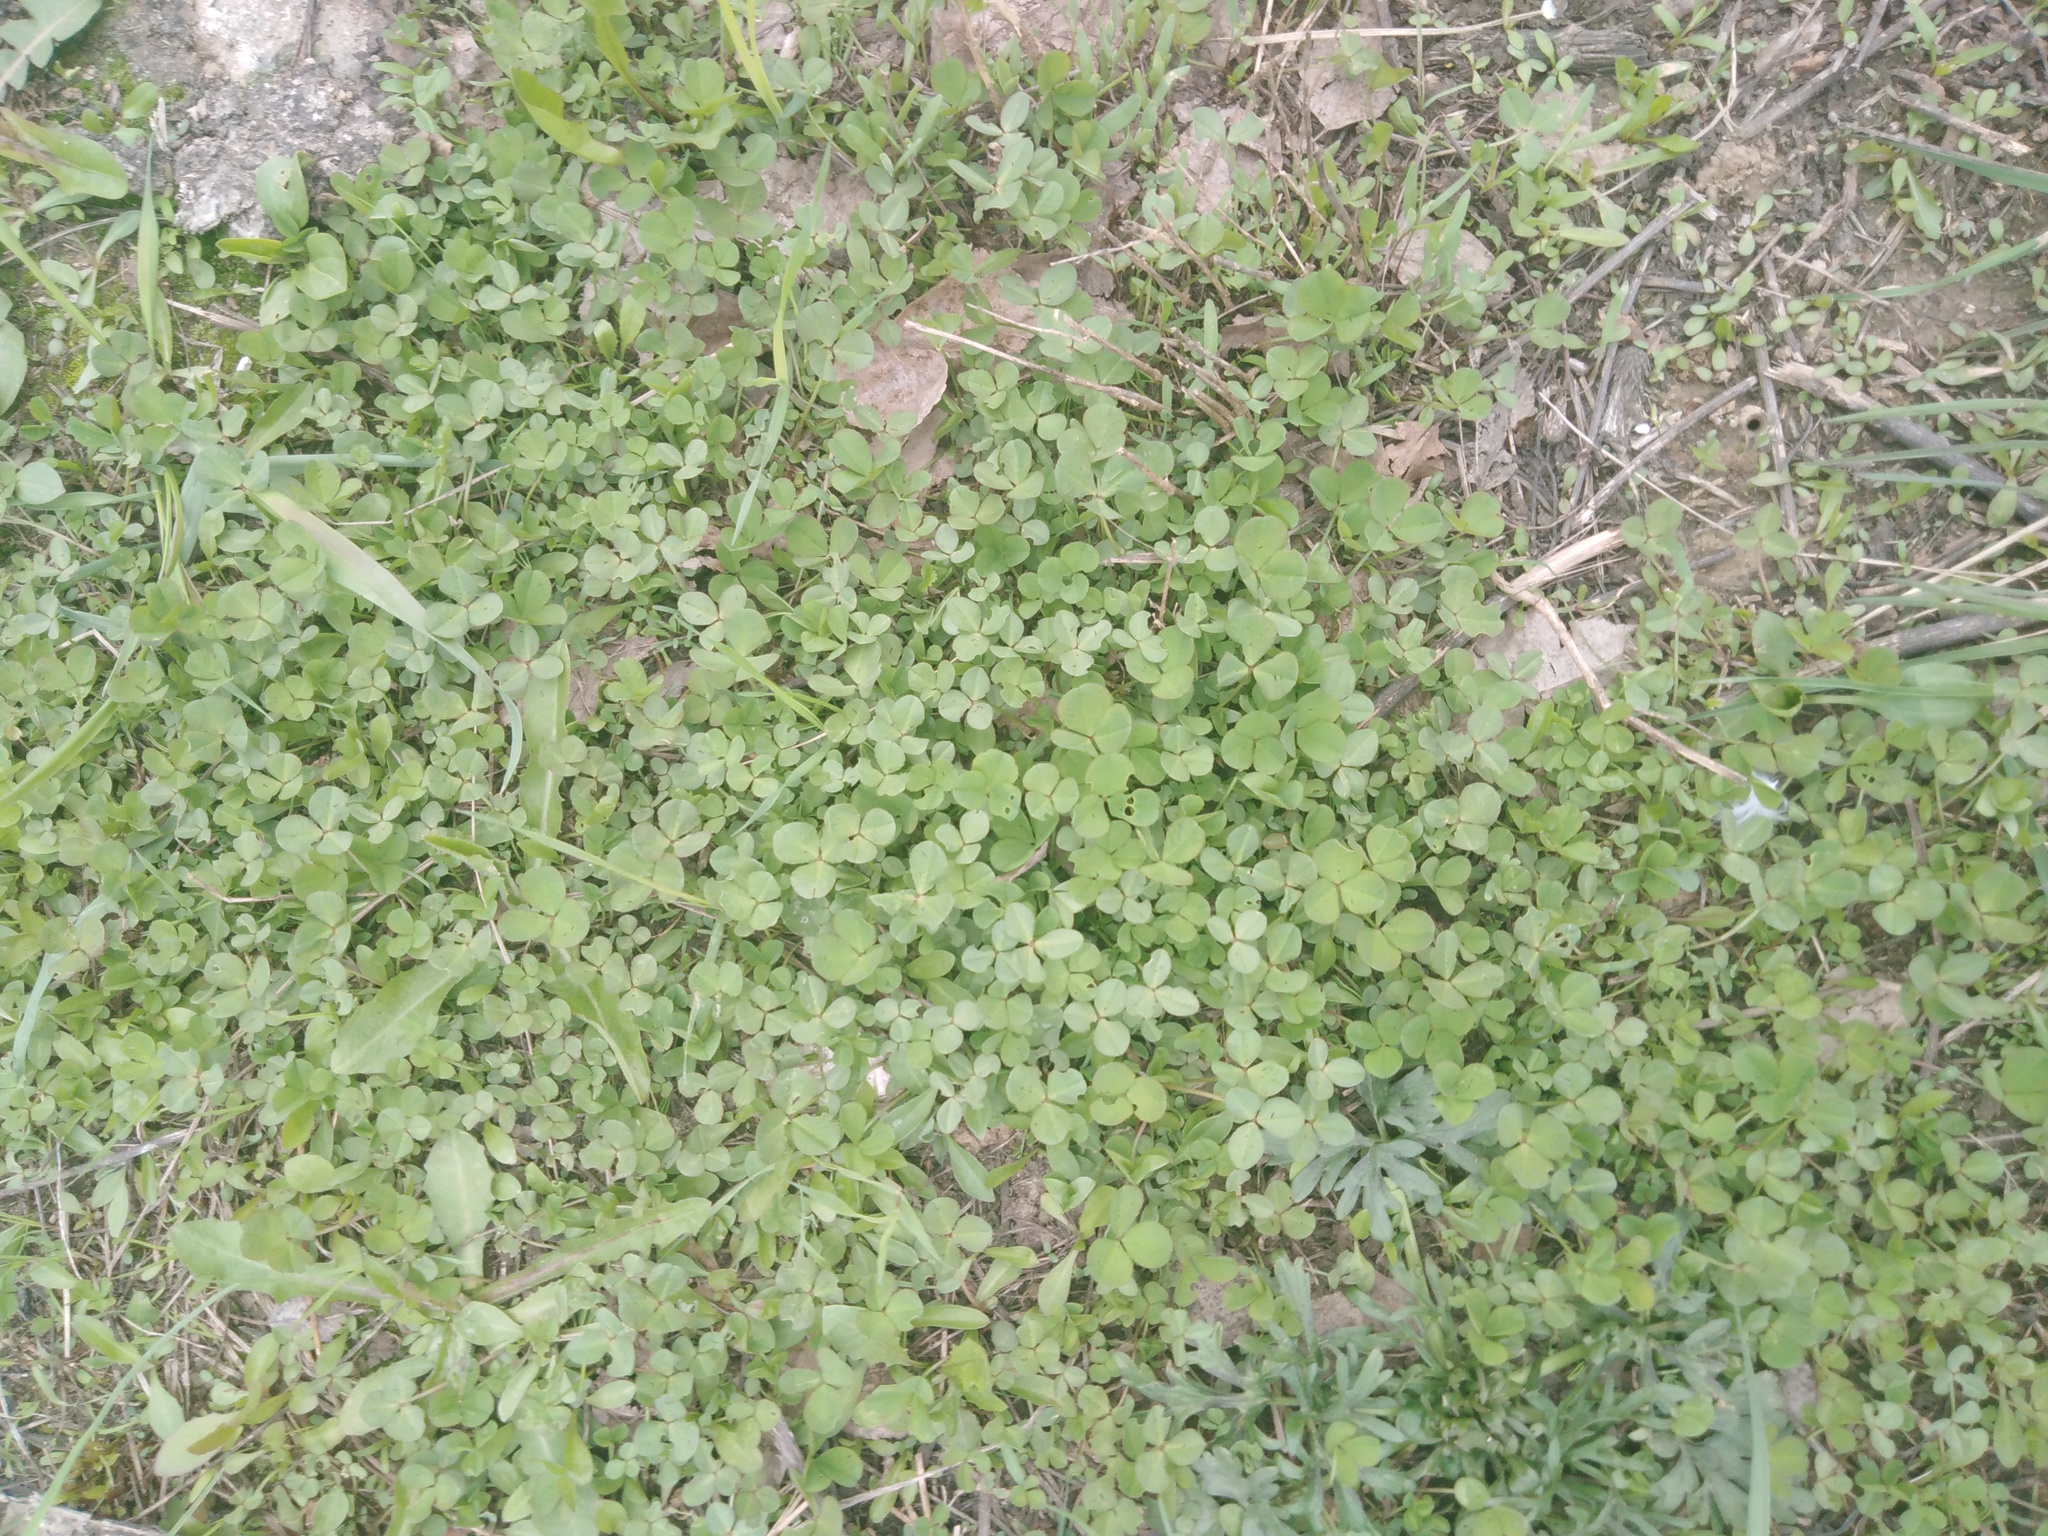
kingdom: Plantae
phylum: Tracheophyta
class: Magnoliopsida
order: Fabales
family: Fabaceae
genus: Trifolium
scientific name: Trifolium repens
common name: White clover
